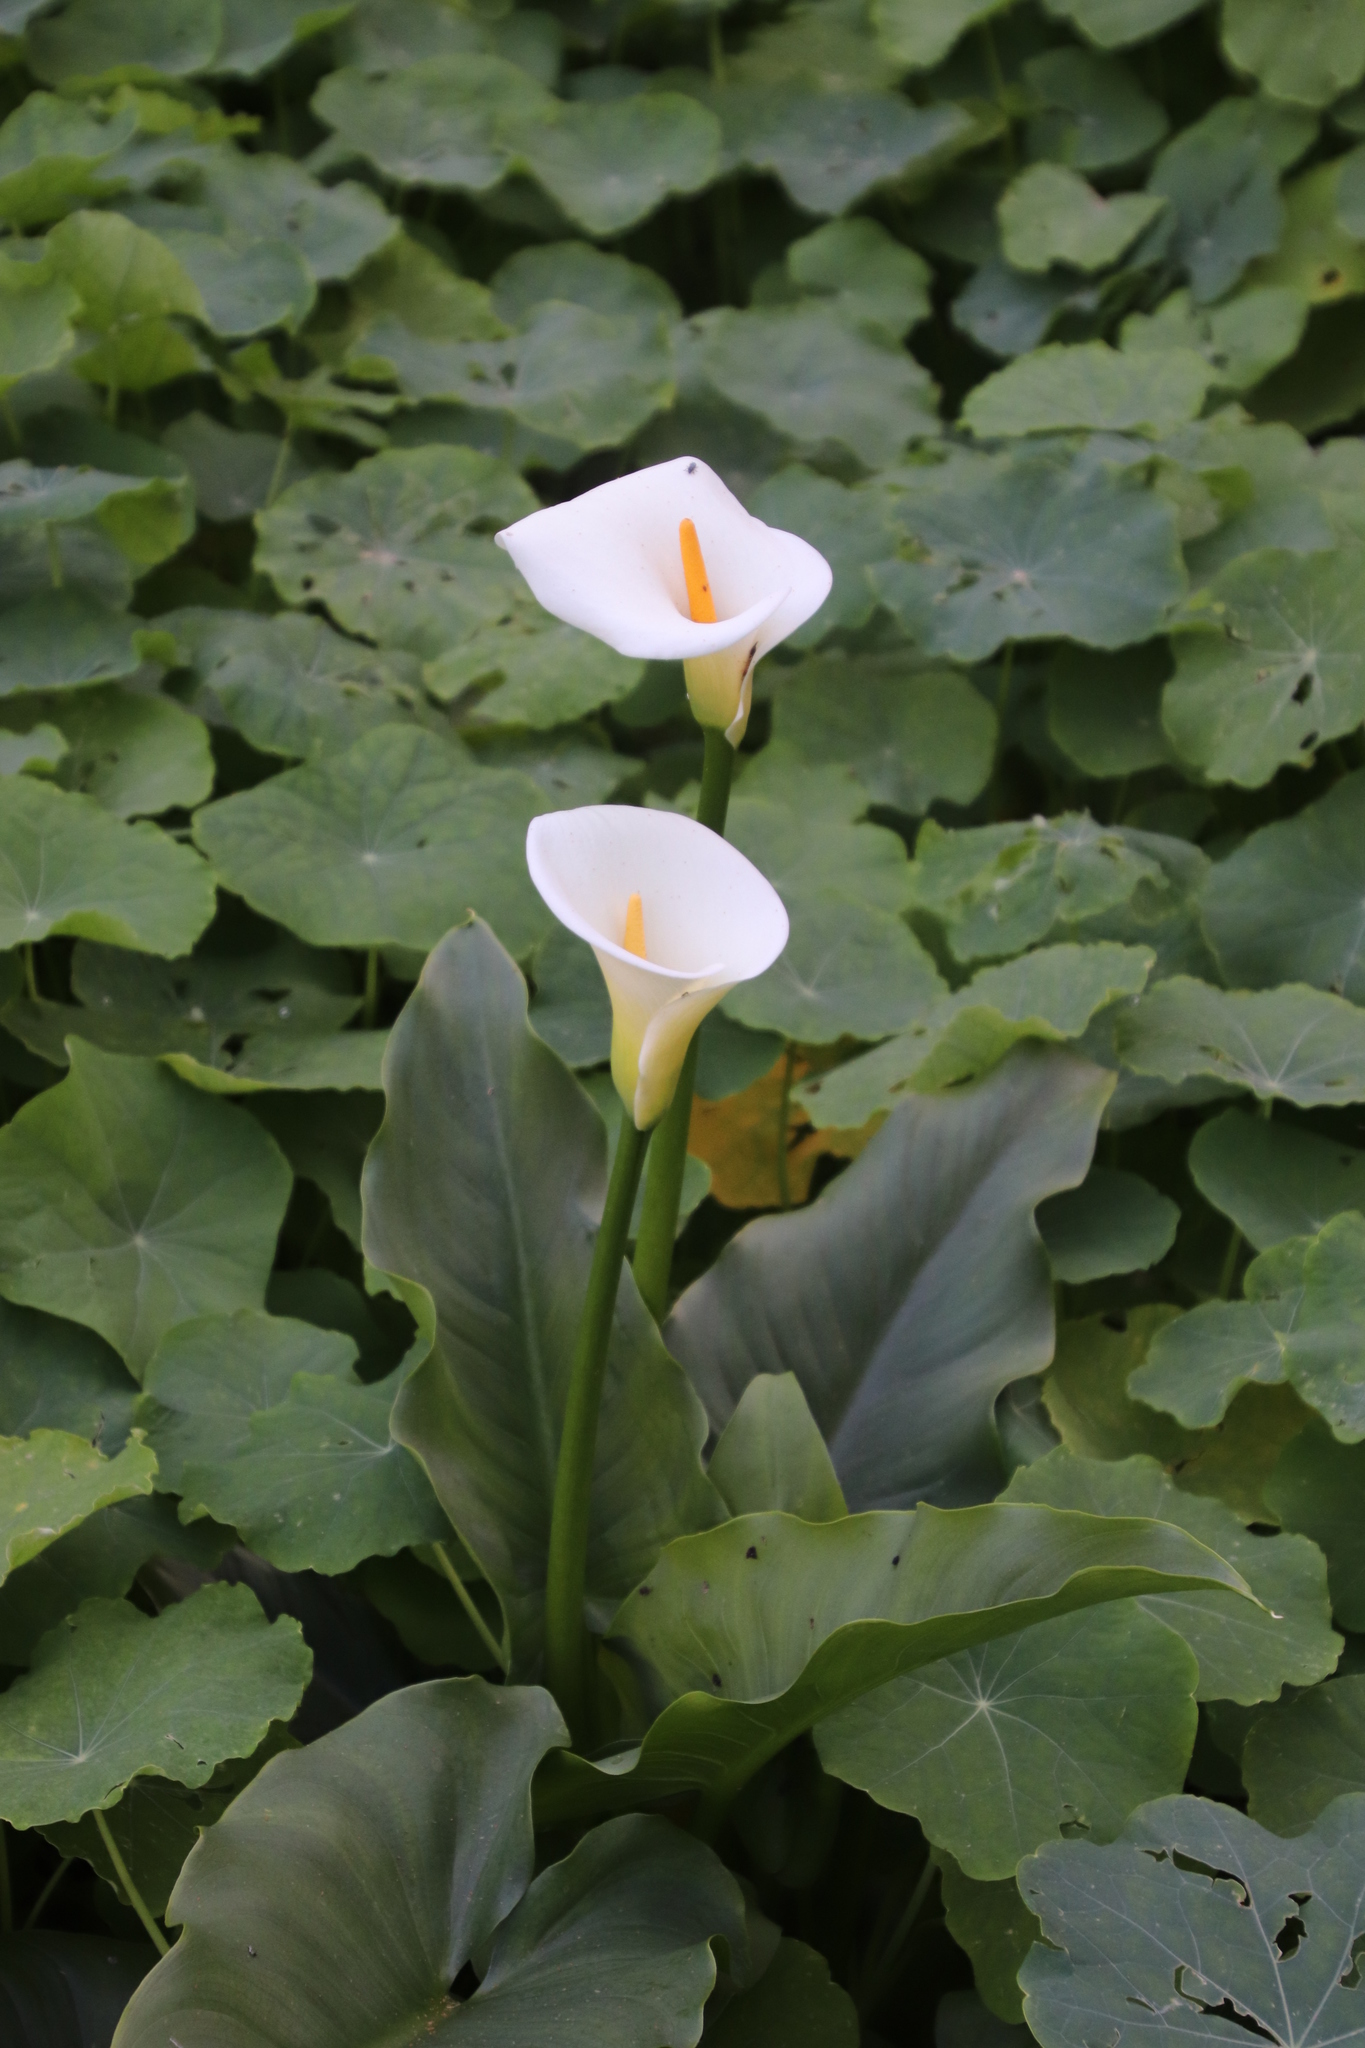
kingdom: Plantae
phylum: Tracheophyta
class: Liliopsida
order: Alismatales
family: Araceae
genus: Zantedeschia
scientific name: Zantedeschia aethiopica
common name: Altar-lily
